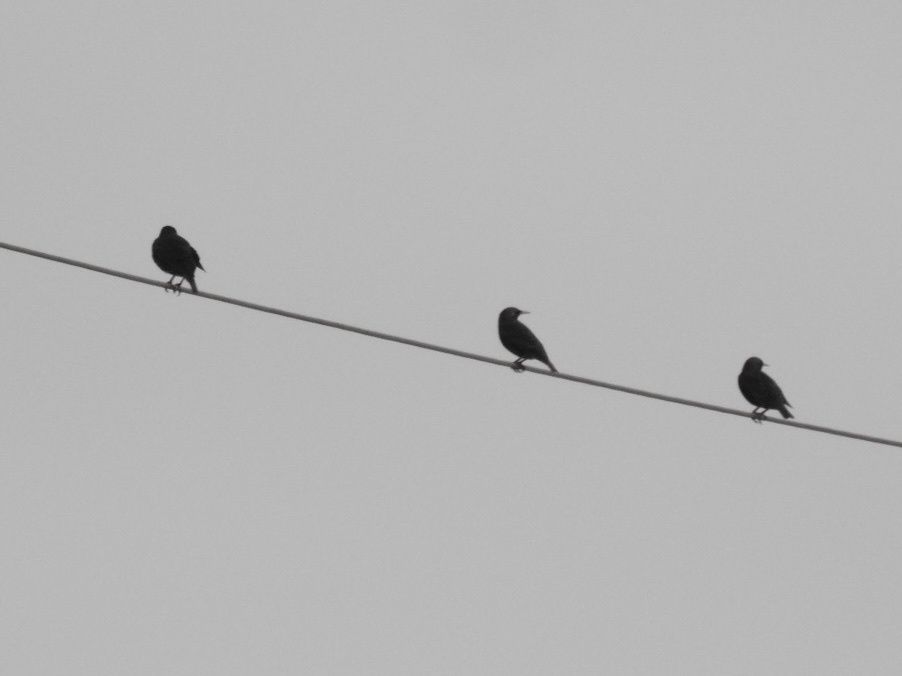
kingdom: Animalia
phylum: Chordata
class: Aves
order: Passeriformes
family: Sturnidae
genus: Sturnus
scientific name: Sturnus vulgaris
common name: Common starling
